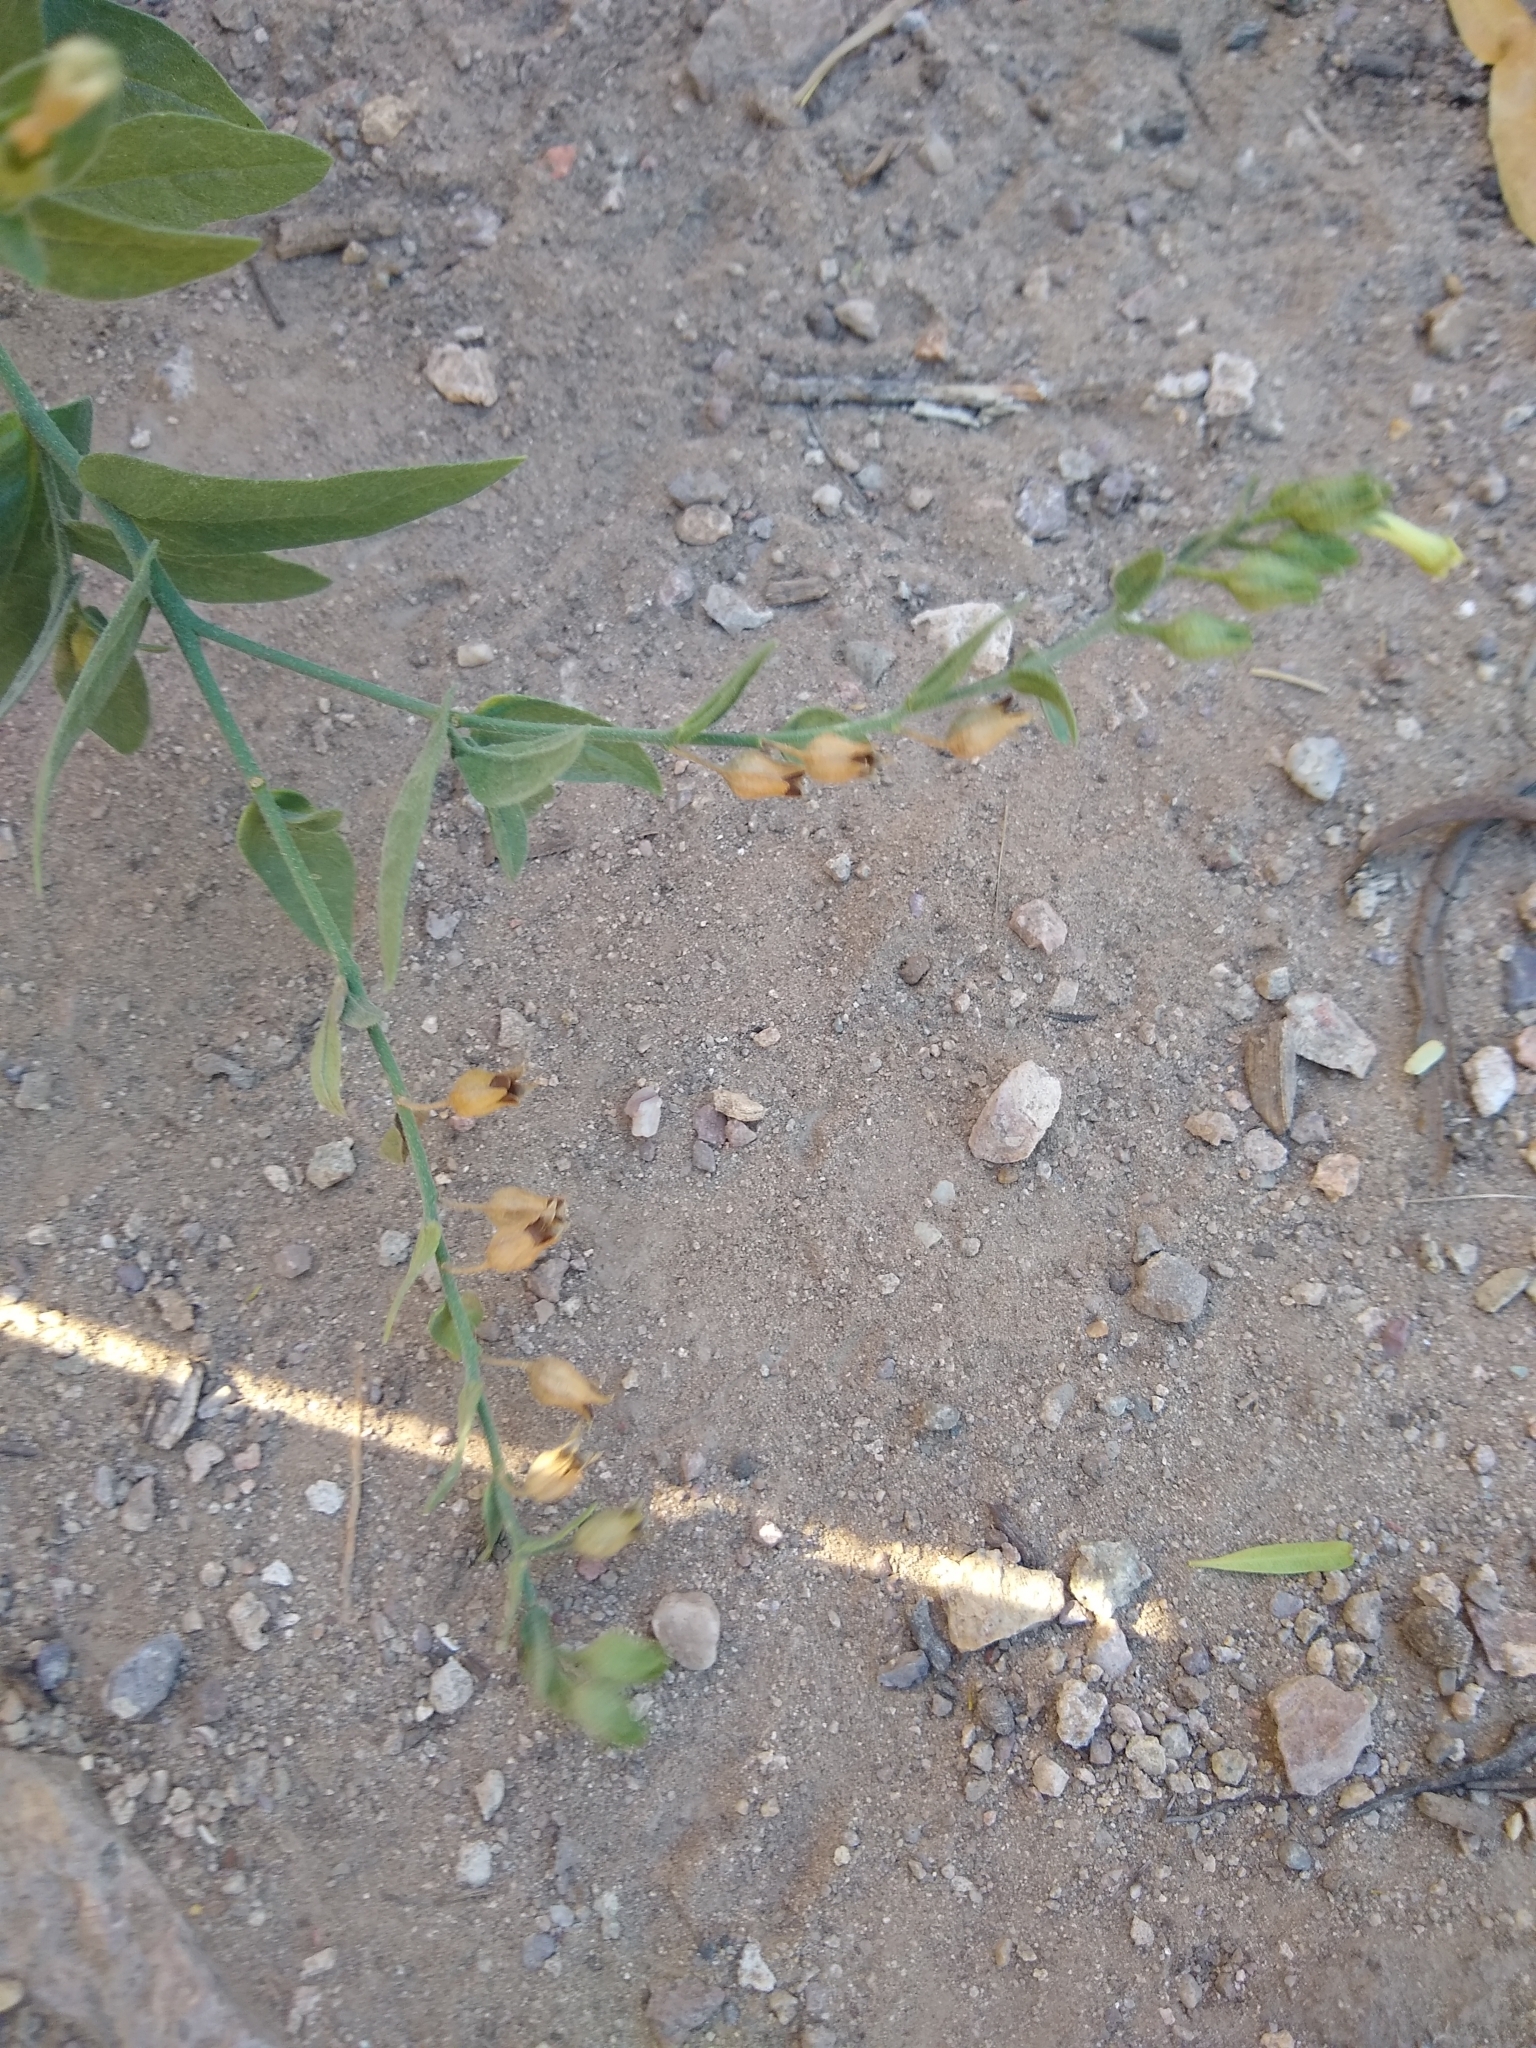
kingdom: Plantae
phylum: Tracheophyta
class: Magnoliopsida
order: Solanales
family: Solanaceae
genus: Nicotiana
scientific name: Nicotiana obtusifolia
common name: Desert tobacco
